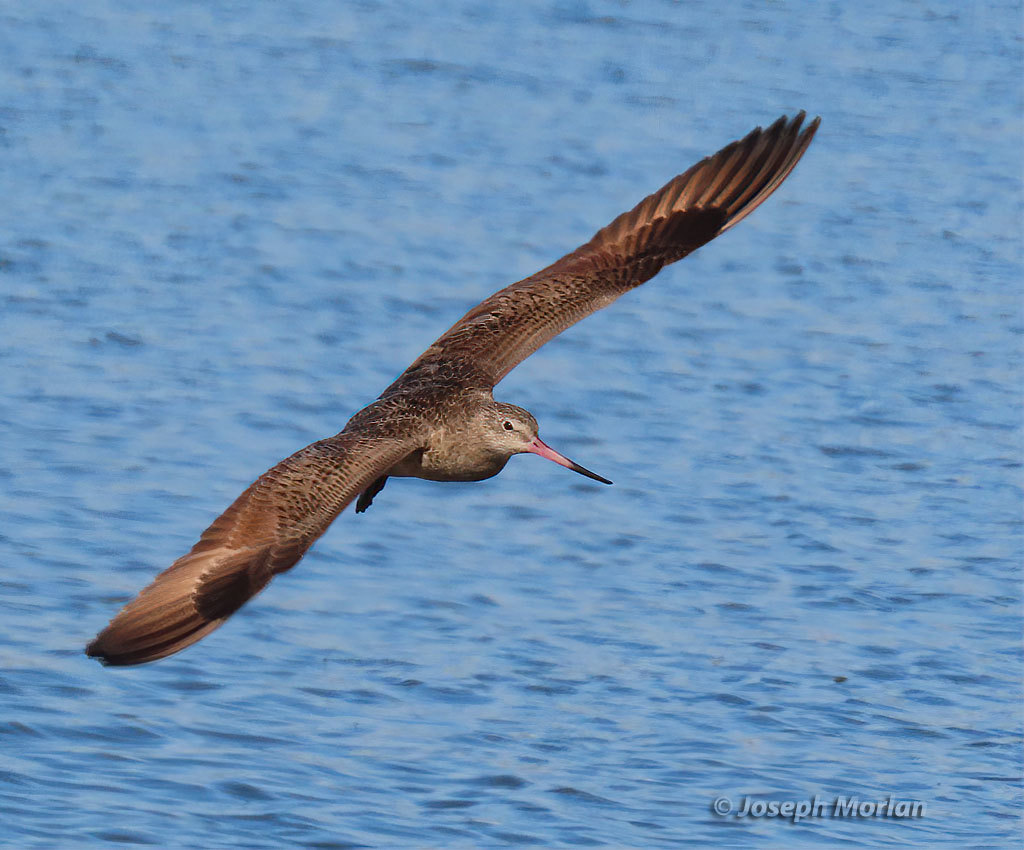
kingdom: Animalia
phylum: Chordata
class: Aves
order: Charadriiformes
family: Scolopacidae
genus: Limosa
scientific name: Limosa fedoa
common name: Marbled godwit
